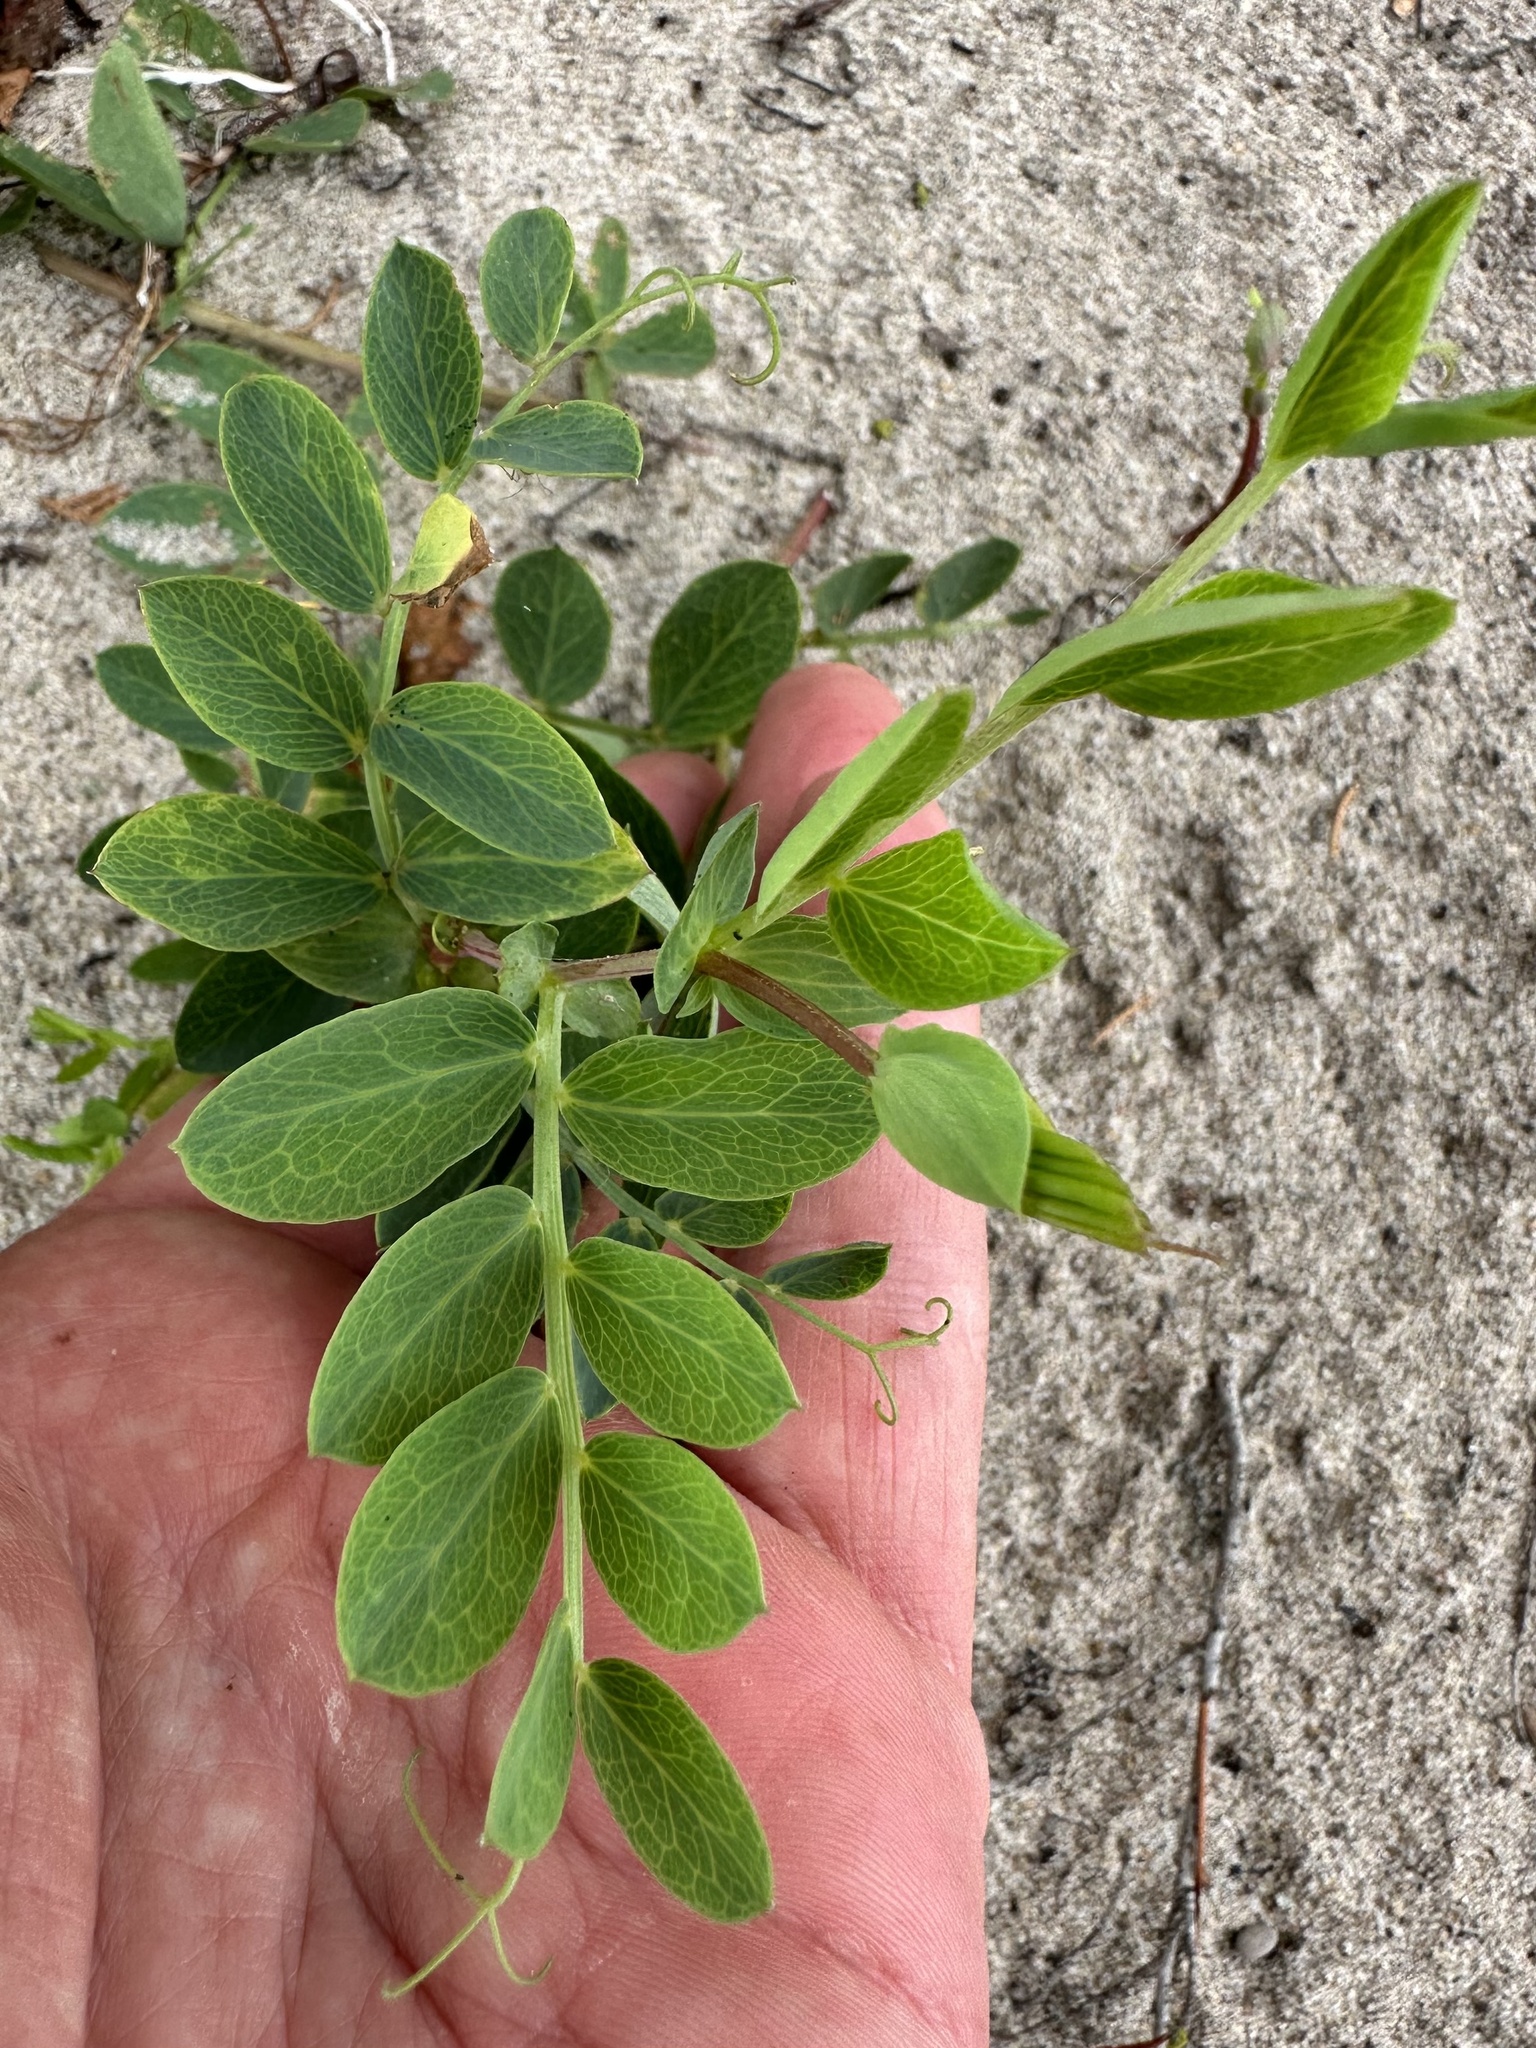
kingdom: Plantae
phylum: Tracheophyta
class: Magnoliopsida
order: Fabales
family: Fabaceae
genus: Lathyrus
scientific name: Lathyrus japonicus
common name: Sea pea
